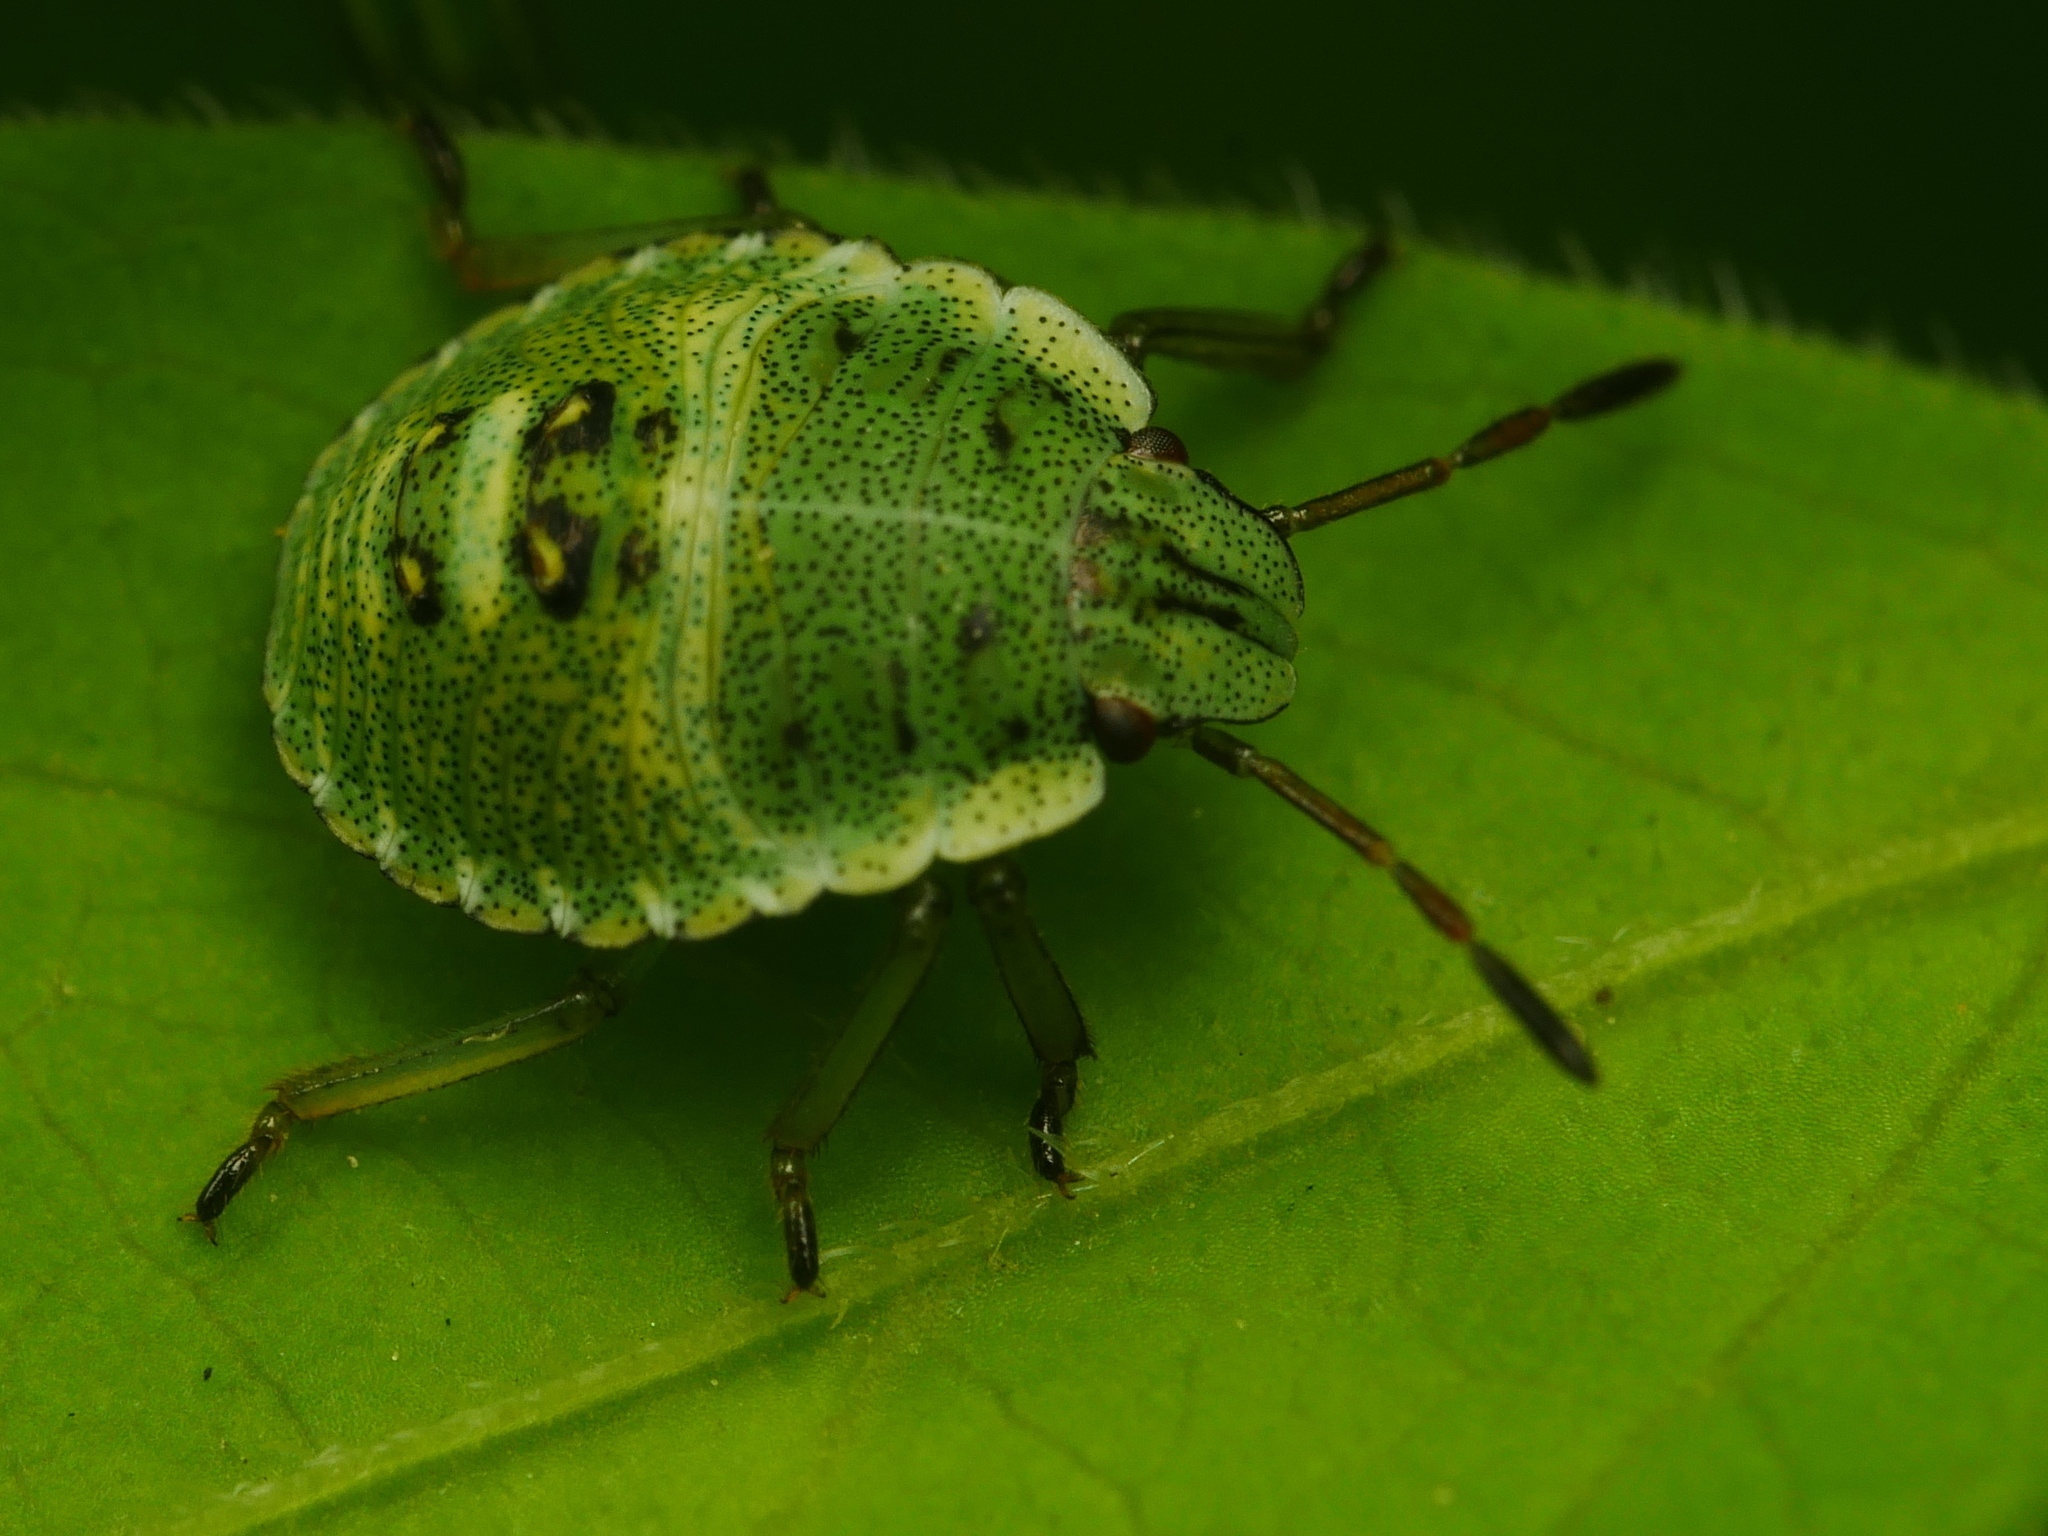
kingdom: Animalia
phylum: Arthropoda
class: Insecta
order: Hemiptera
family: Pentatomidae
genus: Palomena
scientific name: Palomena prasina
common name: Green shieldbug
